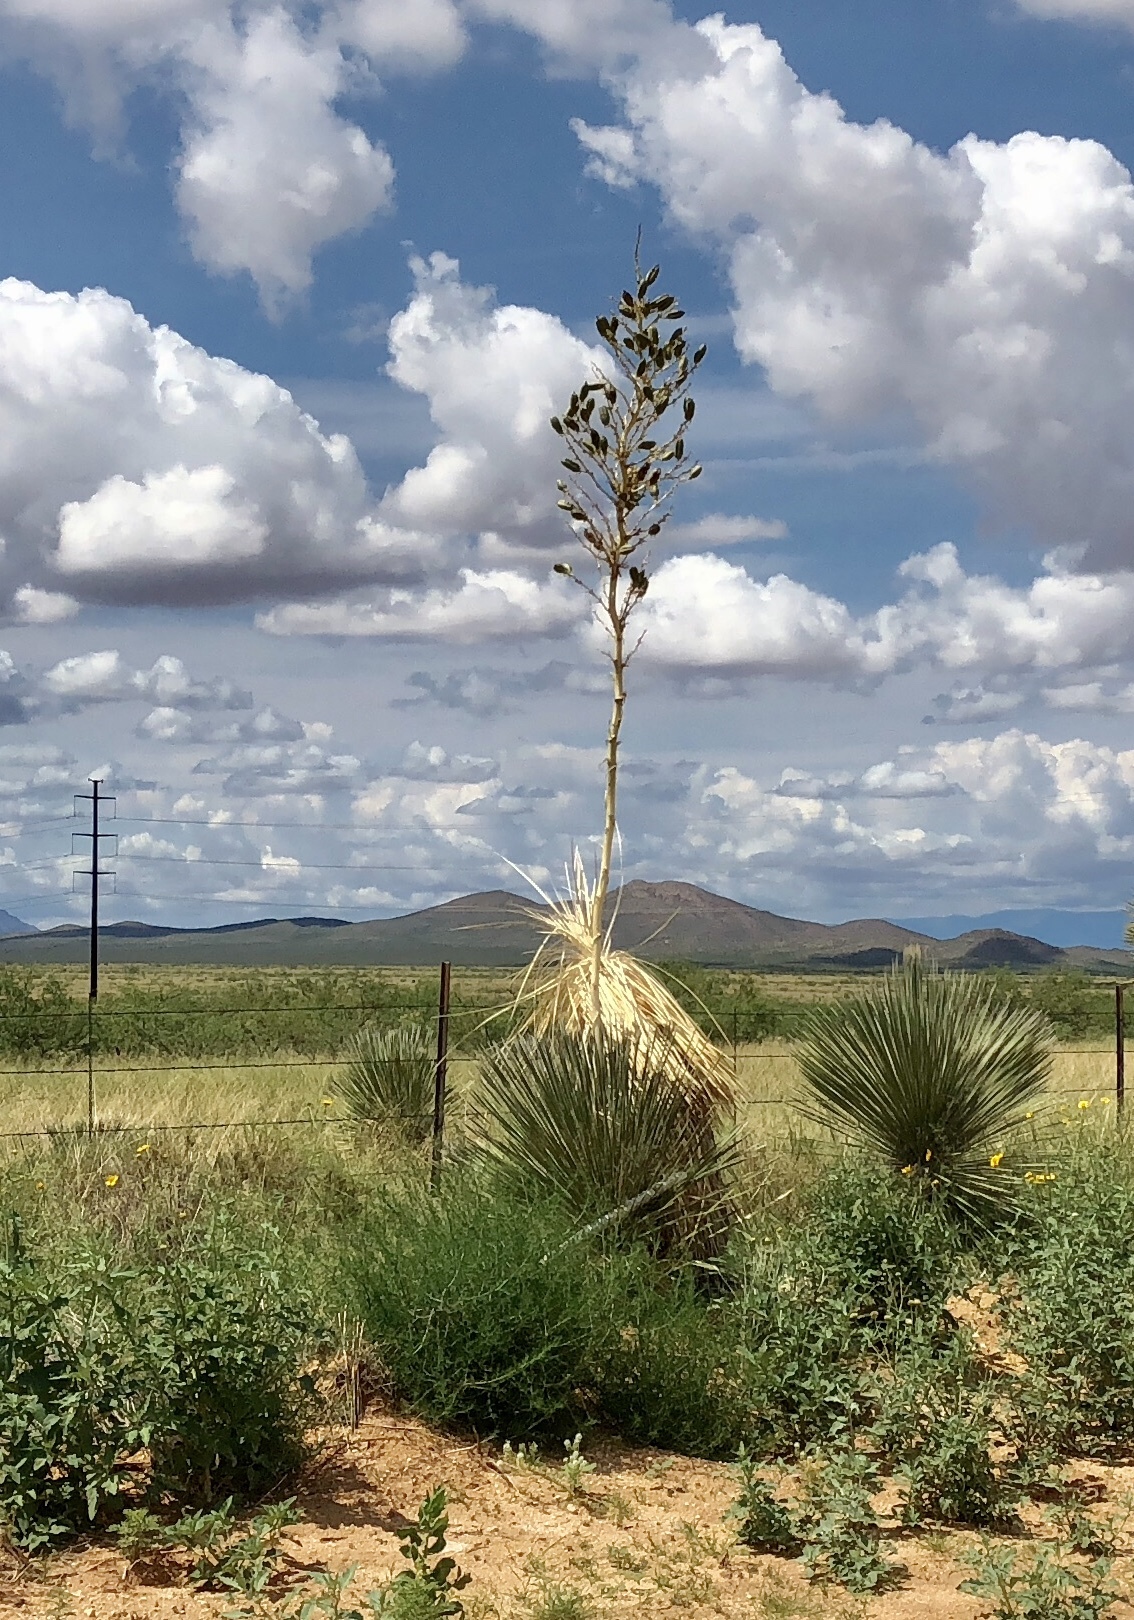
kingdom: Plantae
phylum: Tracheophyta
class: Liliopsida
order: Asparagales
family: Asparagaceae
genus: Yucca
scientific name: Yucca elata
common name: Palmella
